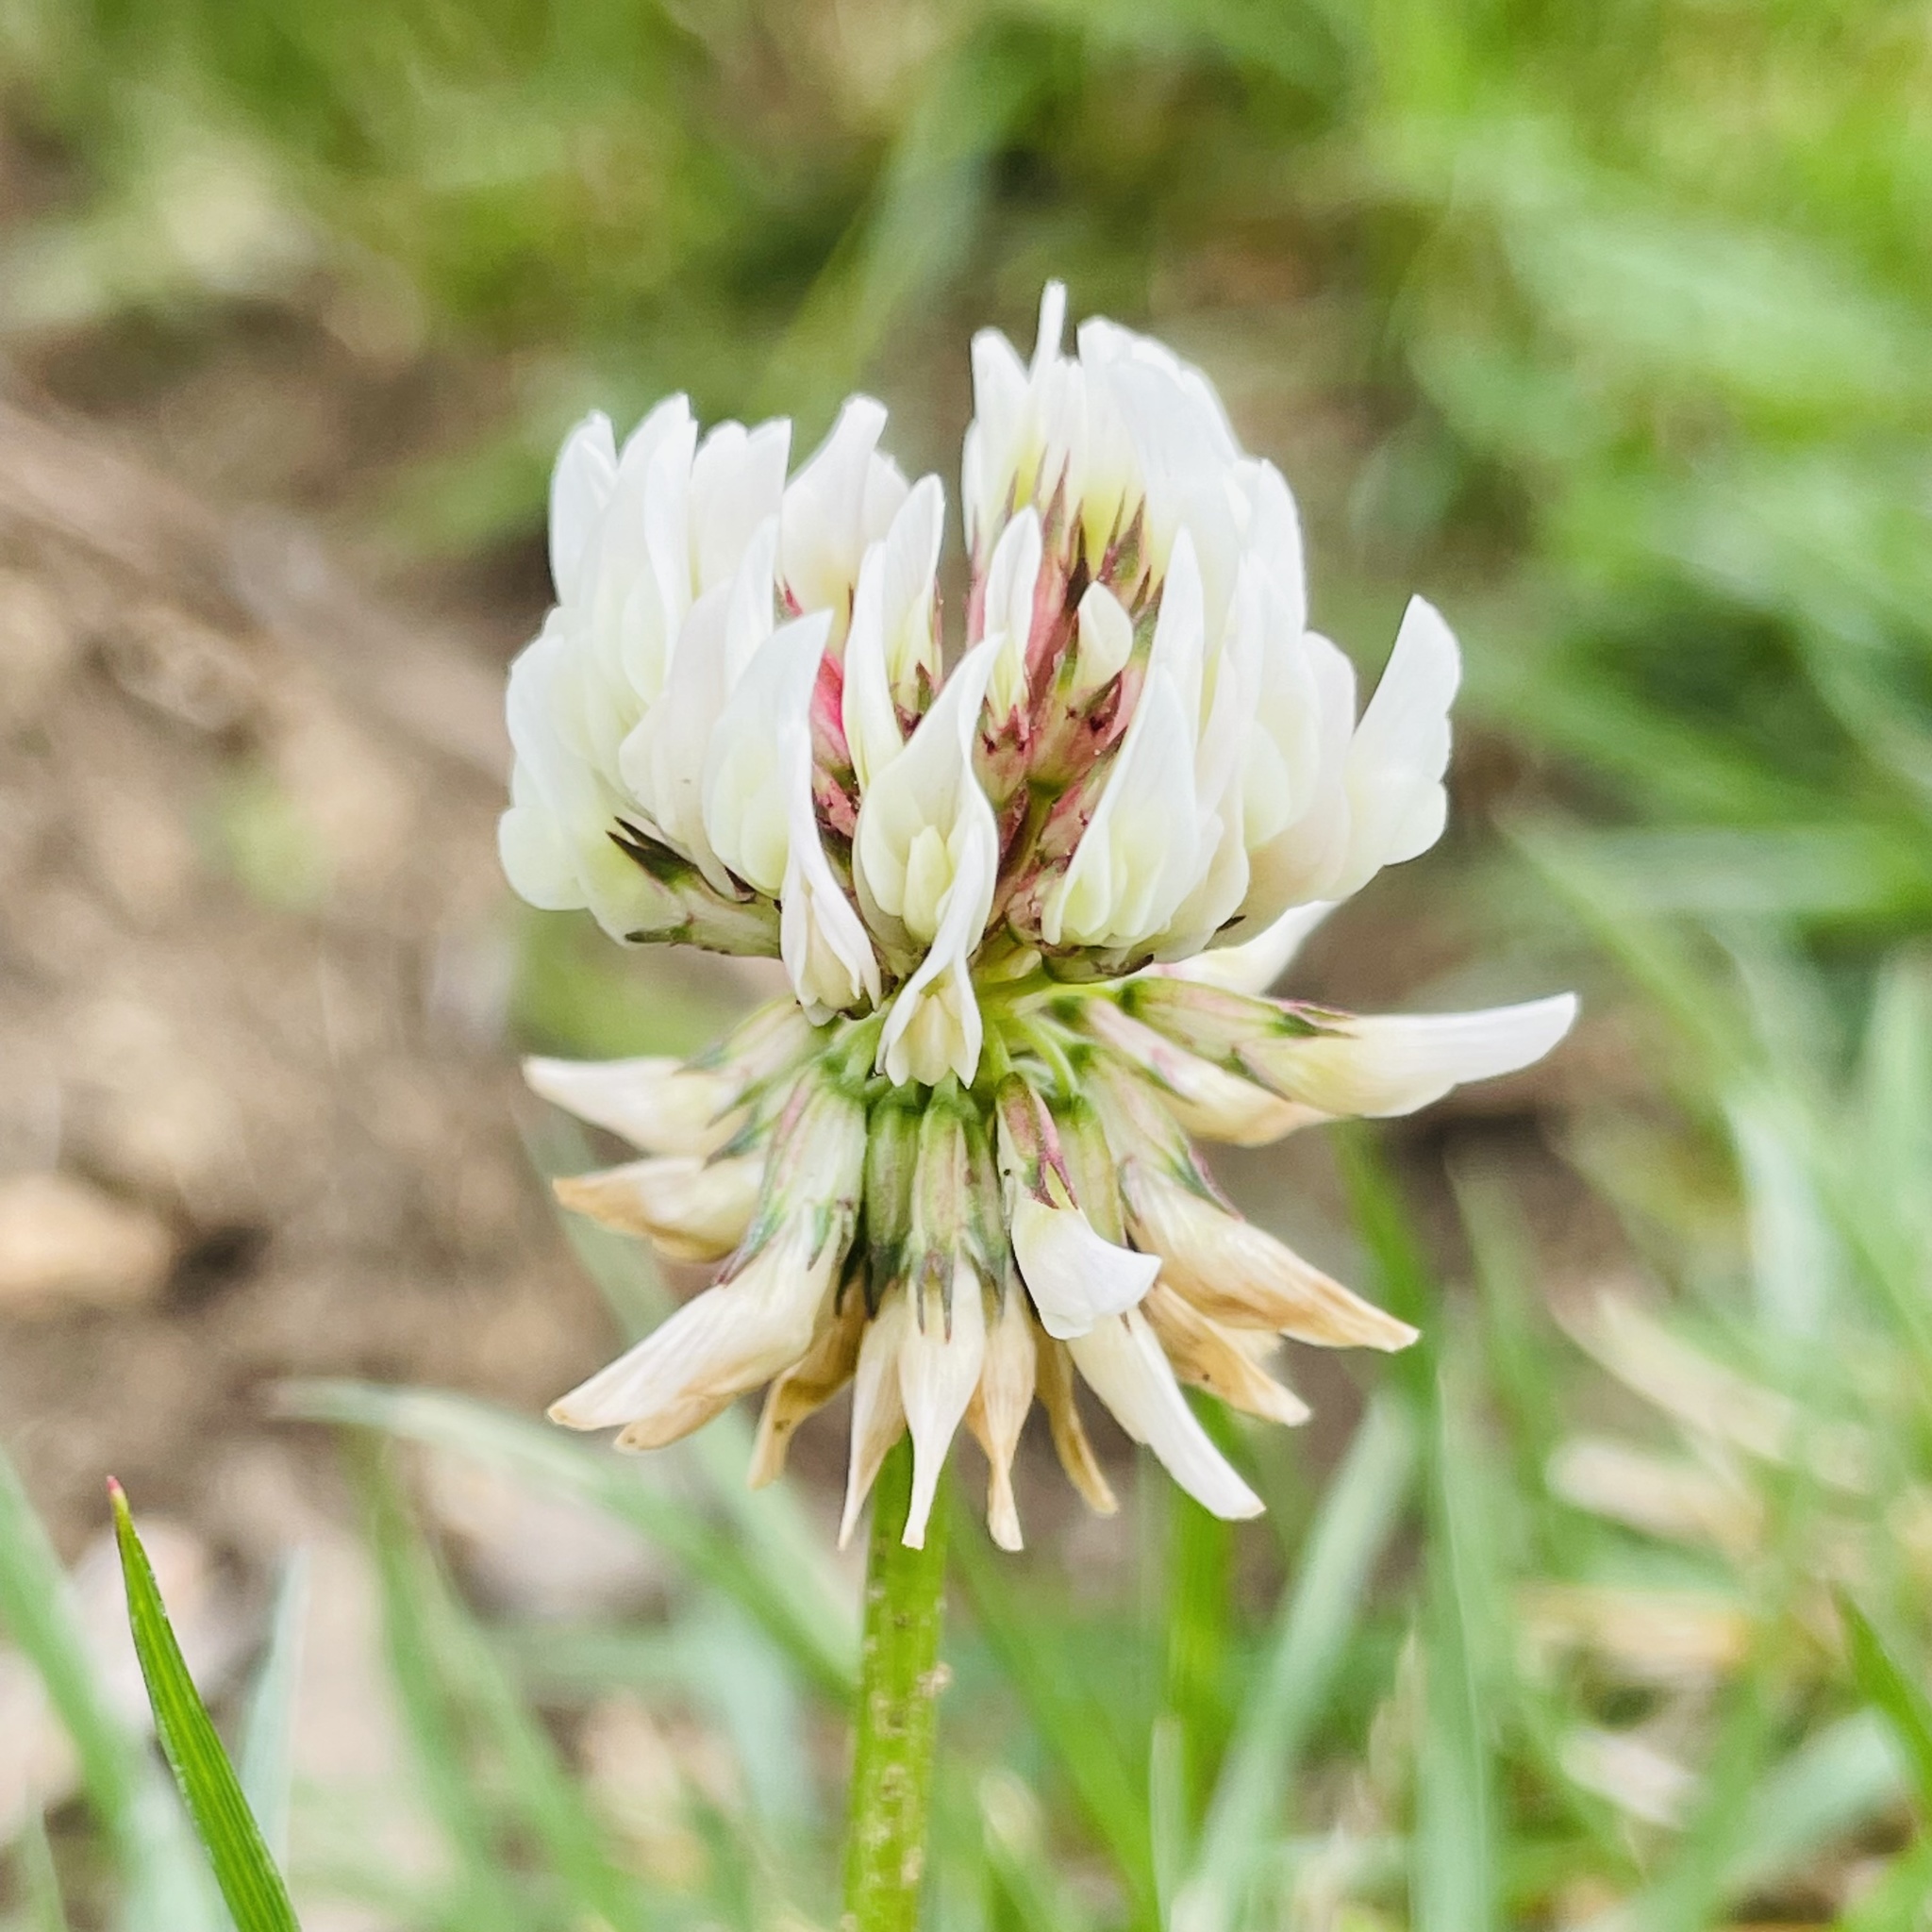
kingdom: Plantae
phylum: Tracheophyta
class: Magnoliopsida
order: Fabales
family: Fabaceae
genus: Trifolium
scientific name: Trifolium repens
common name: White clover
